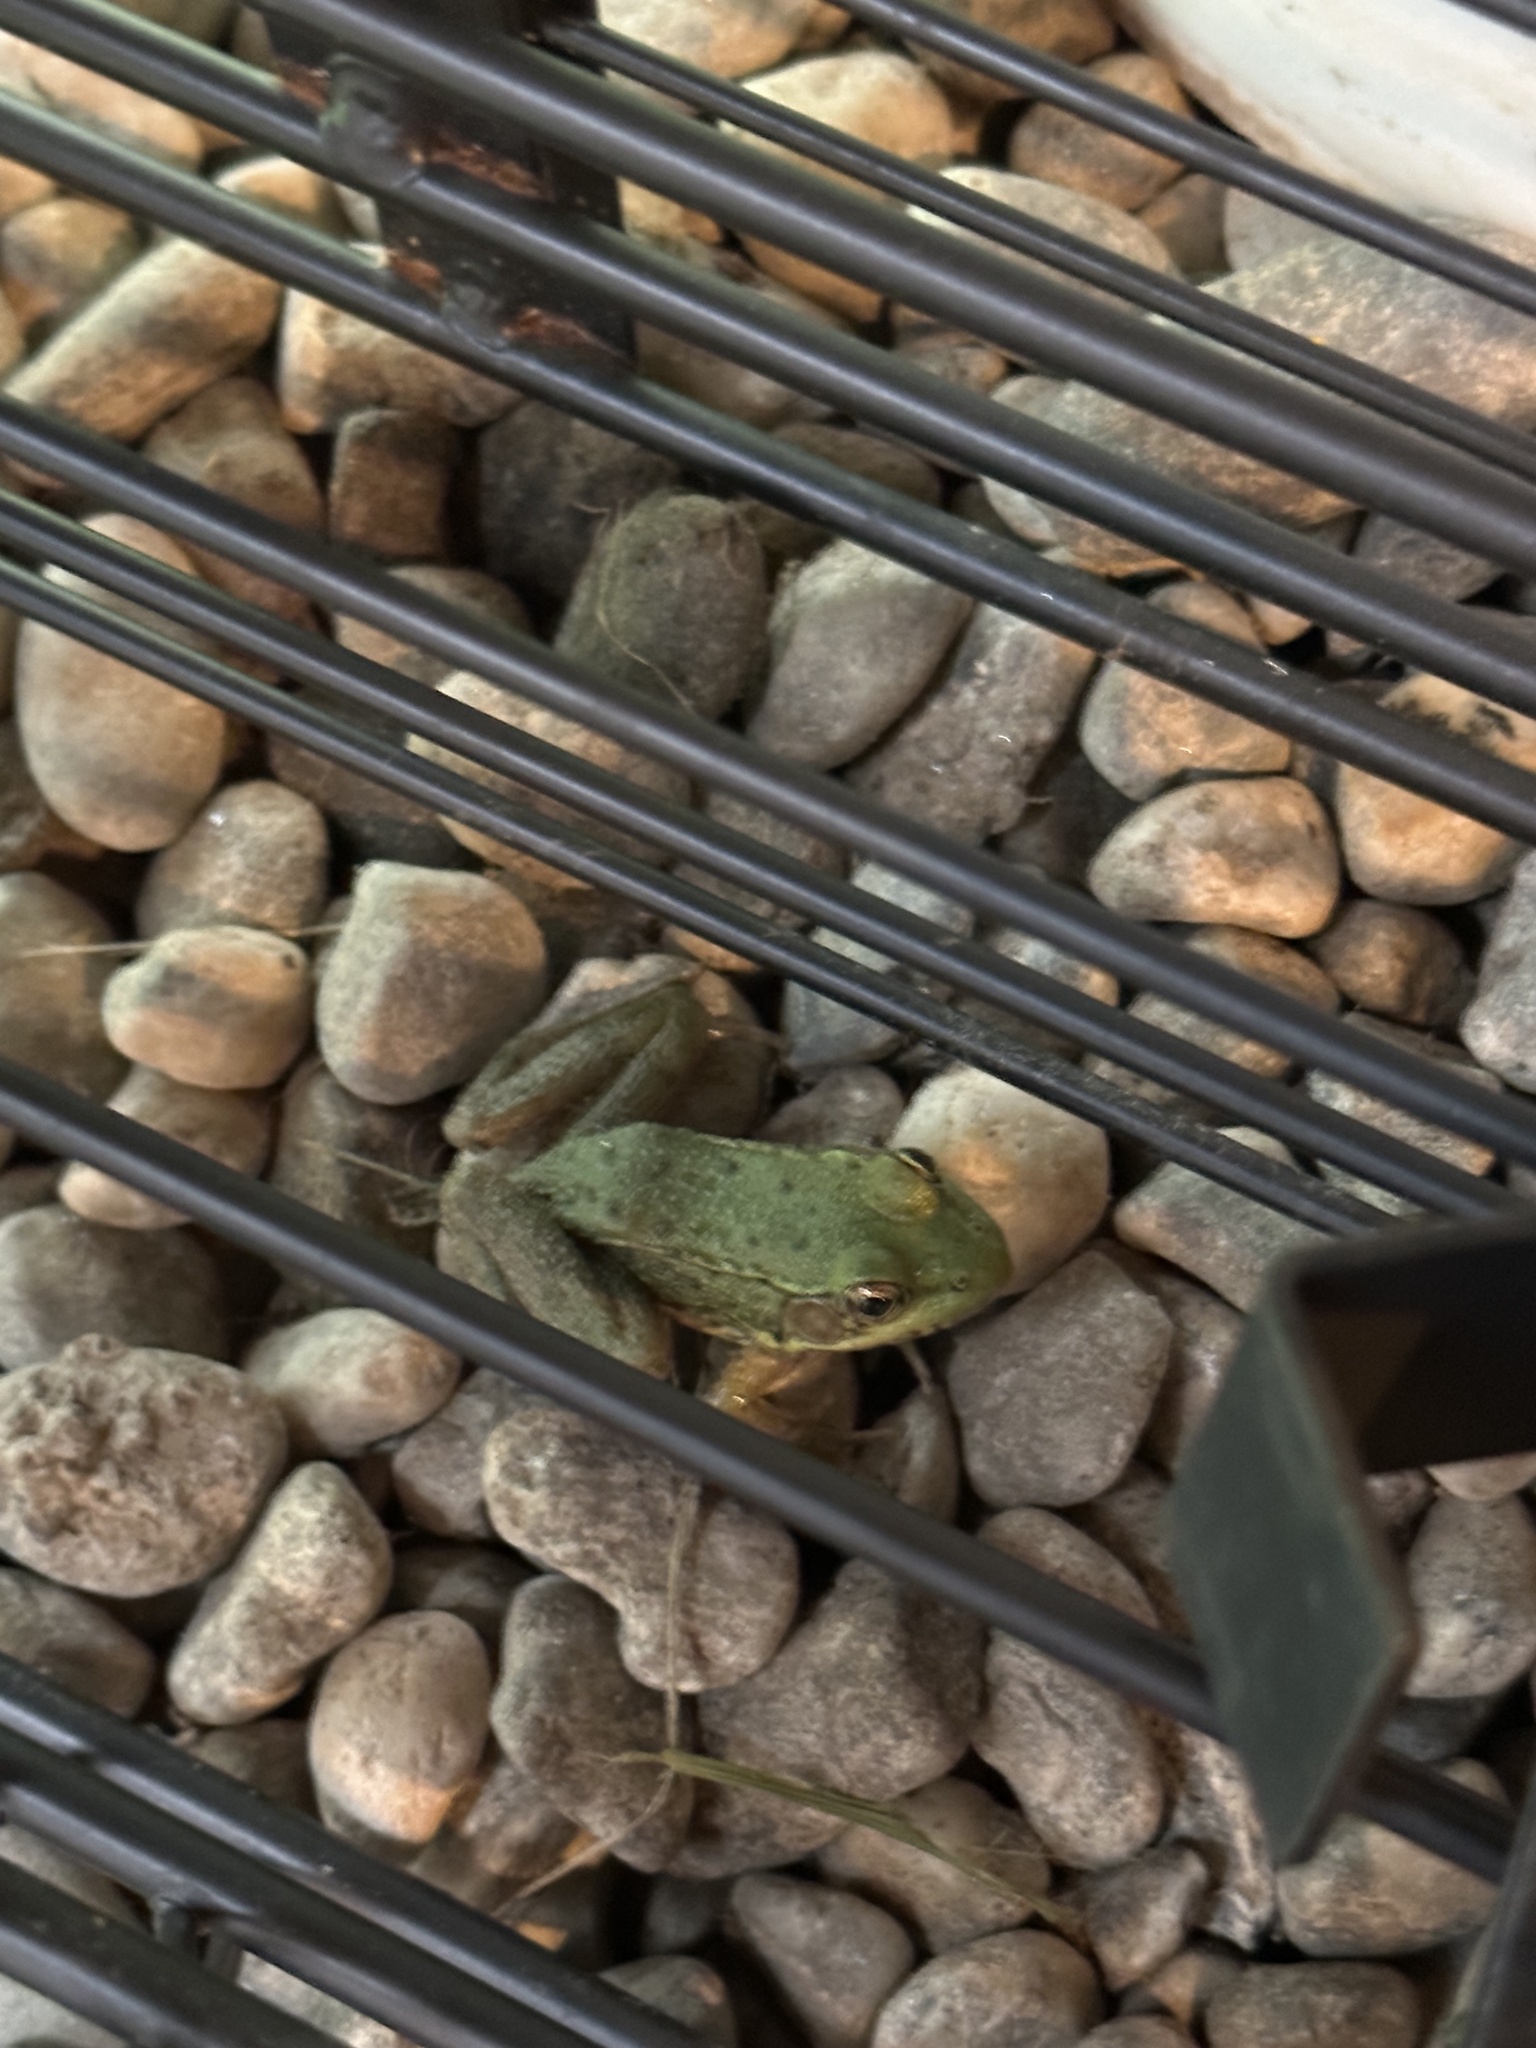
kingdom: Animalia
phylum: Chordata
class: Amphibia
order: Anura
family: Ranidae
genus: Lithobates
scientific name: Lithobates clamitans
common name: Green frog
